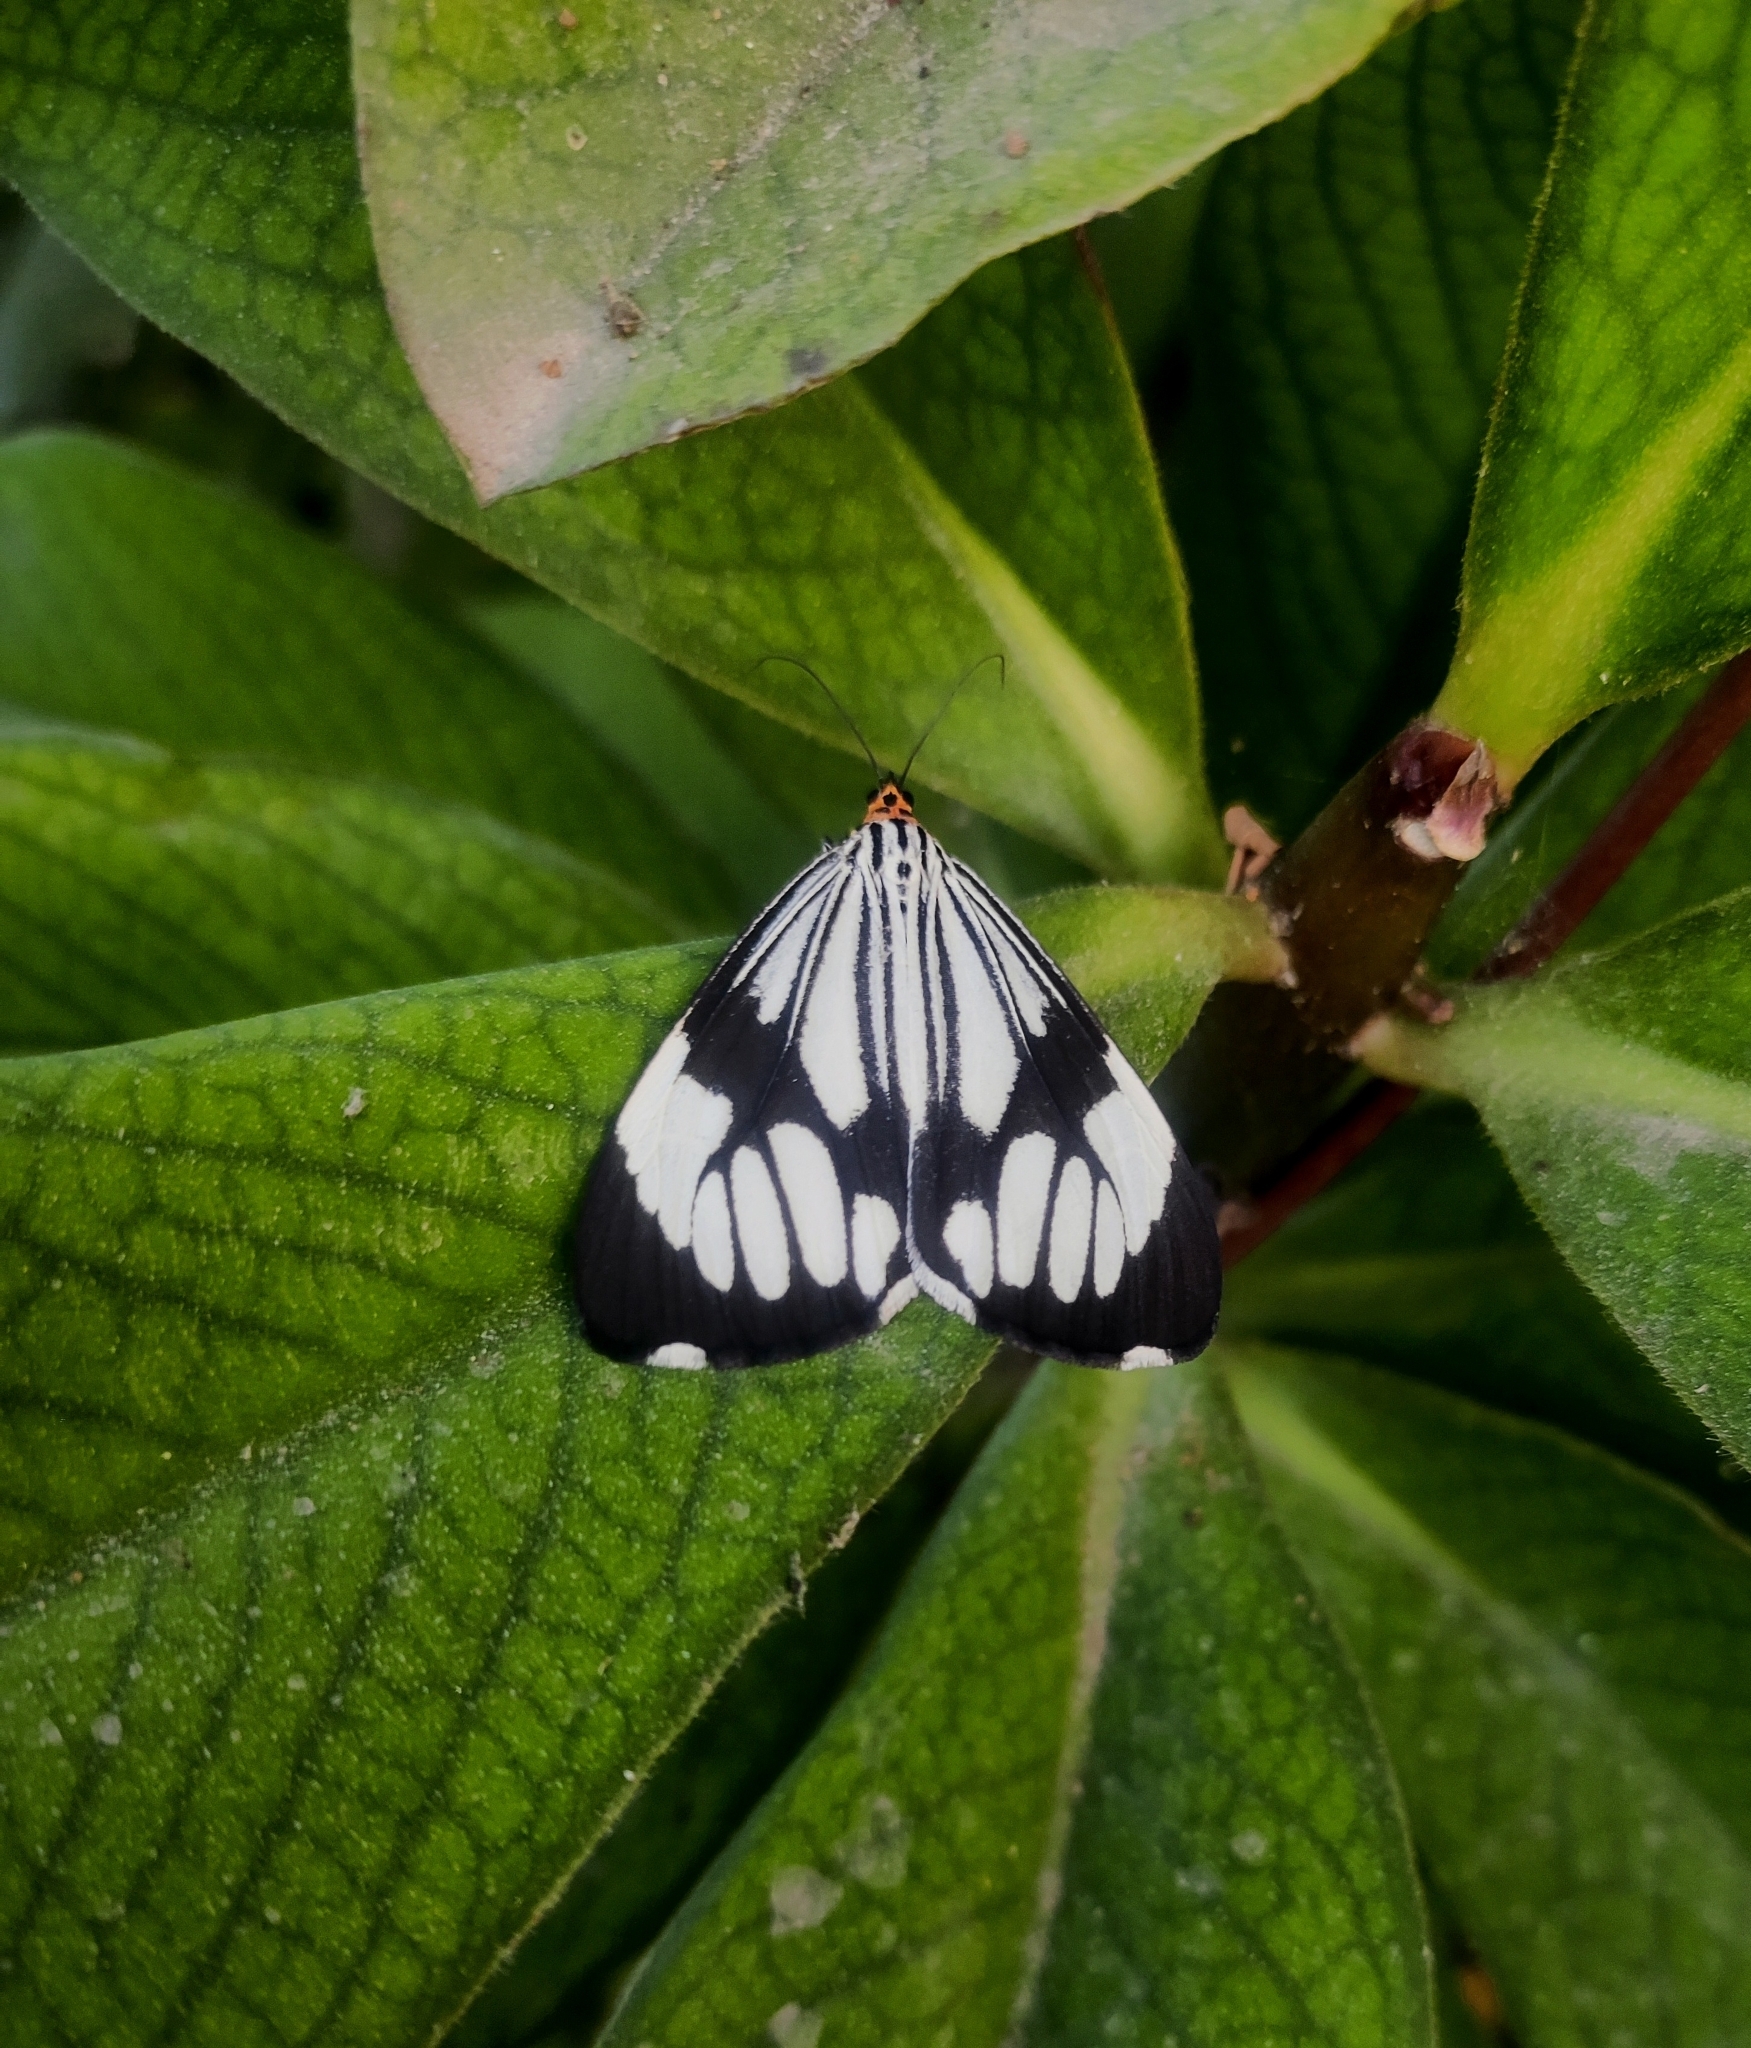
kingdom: Animalia
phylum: Arthropoda
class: Insecta
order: Lepidoptera
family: Erebidae
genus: Nyctemera
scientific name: Nyctemera coleta
